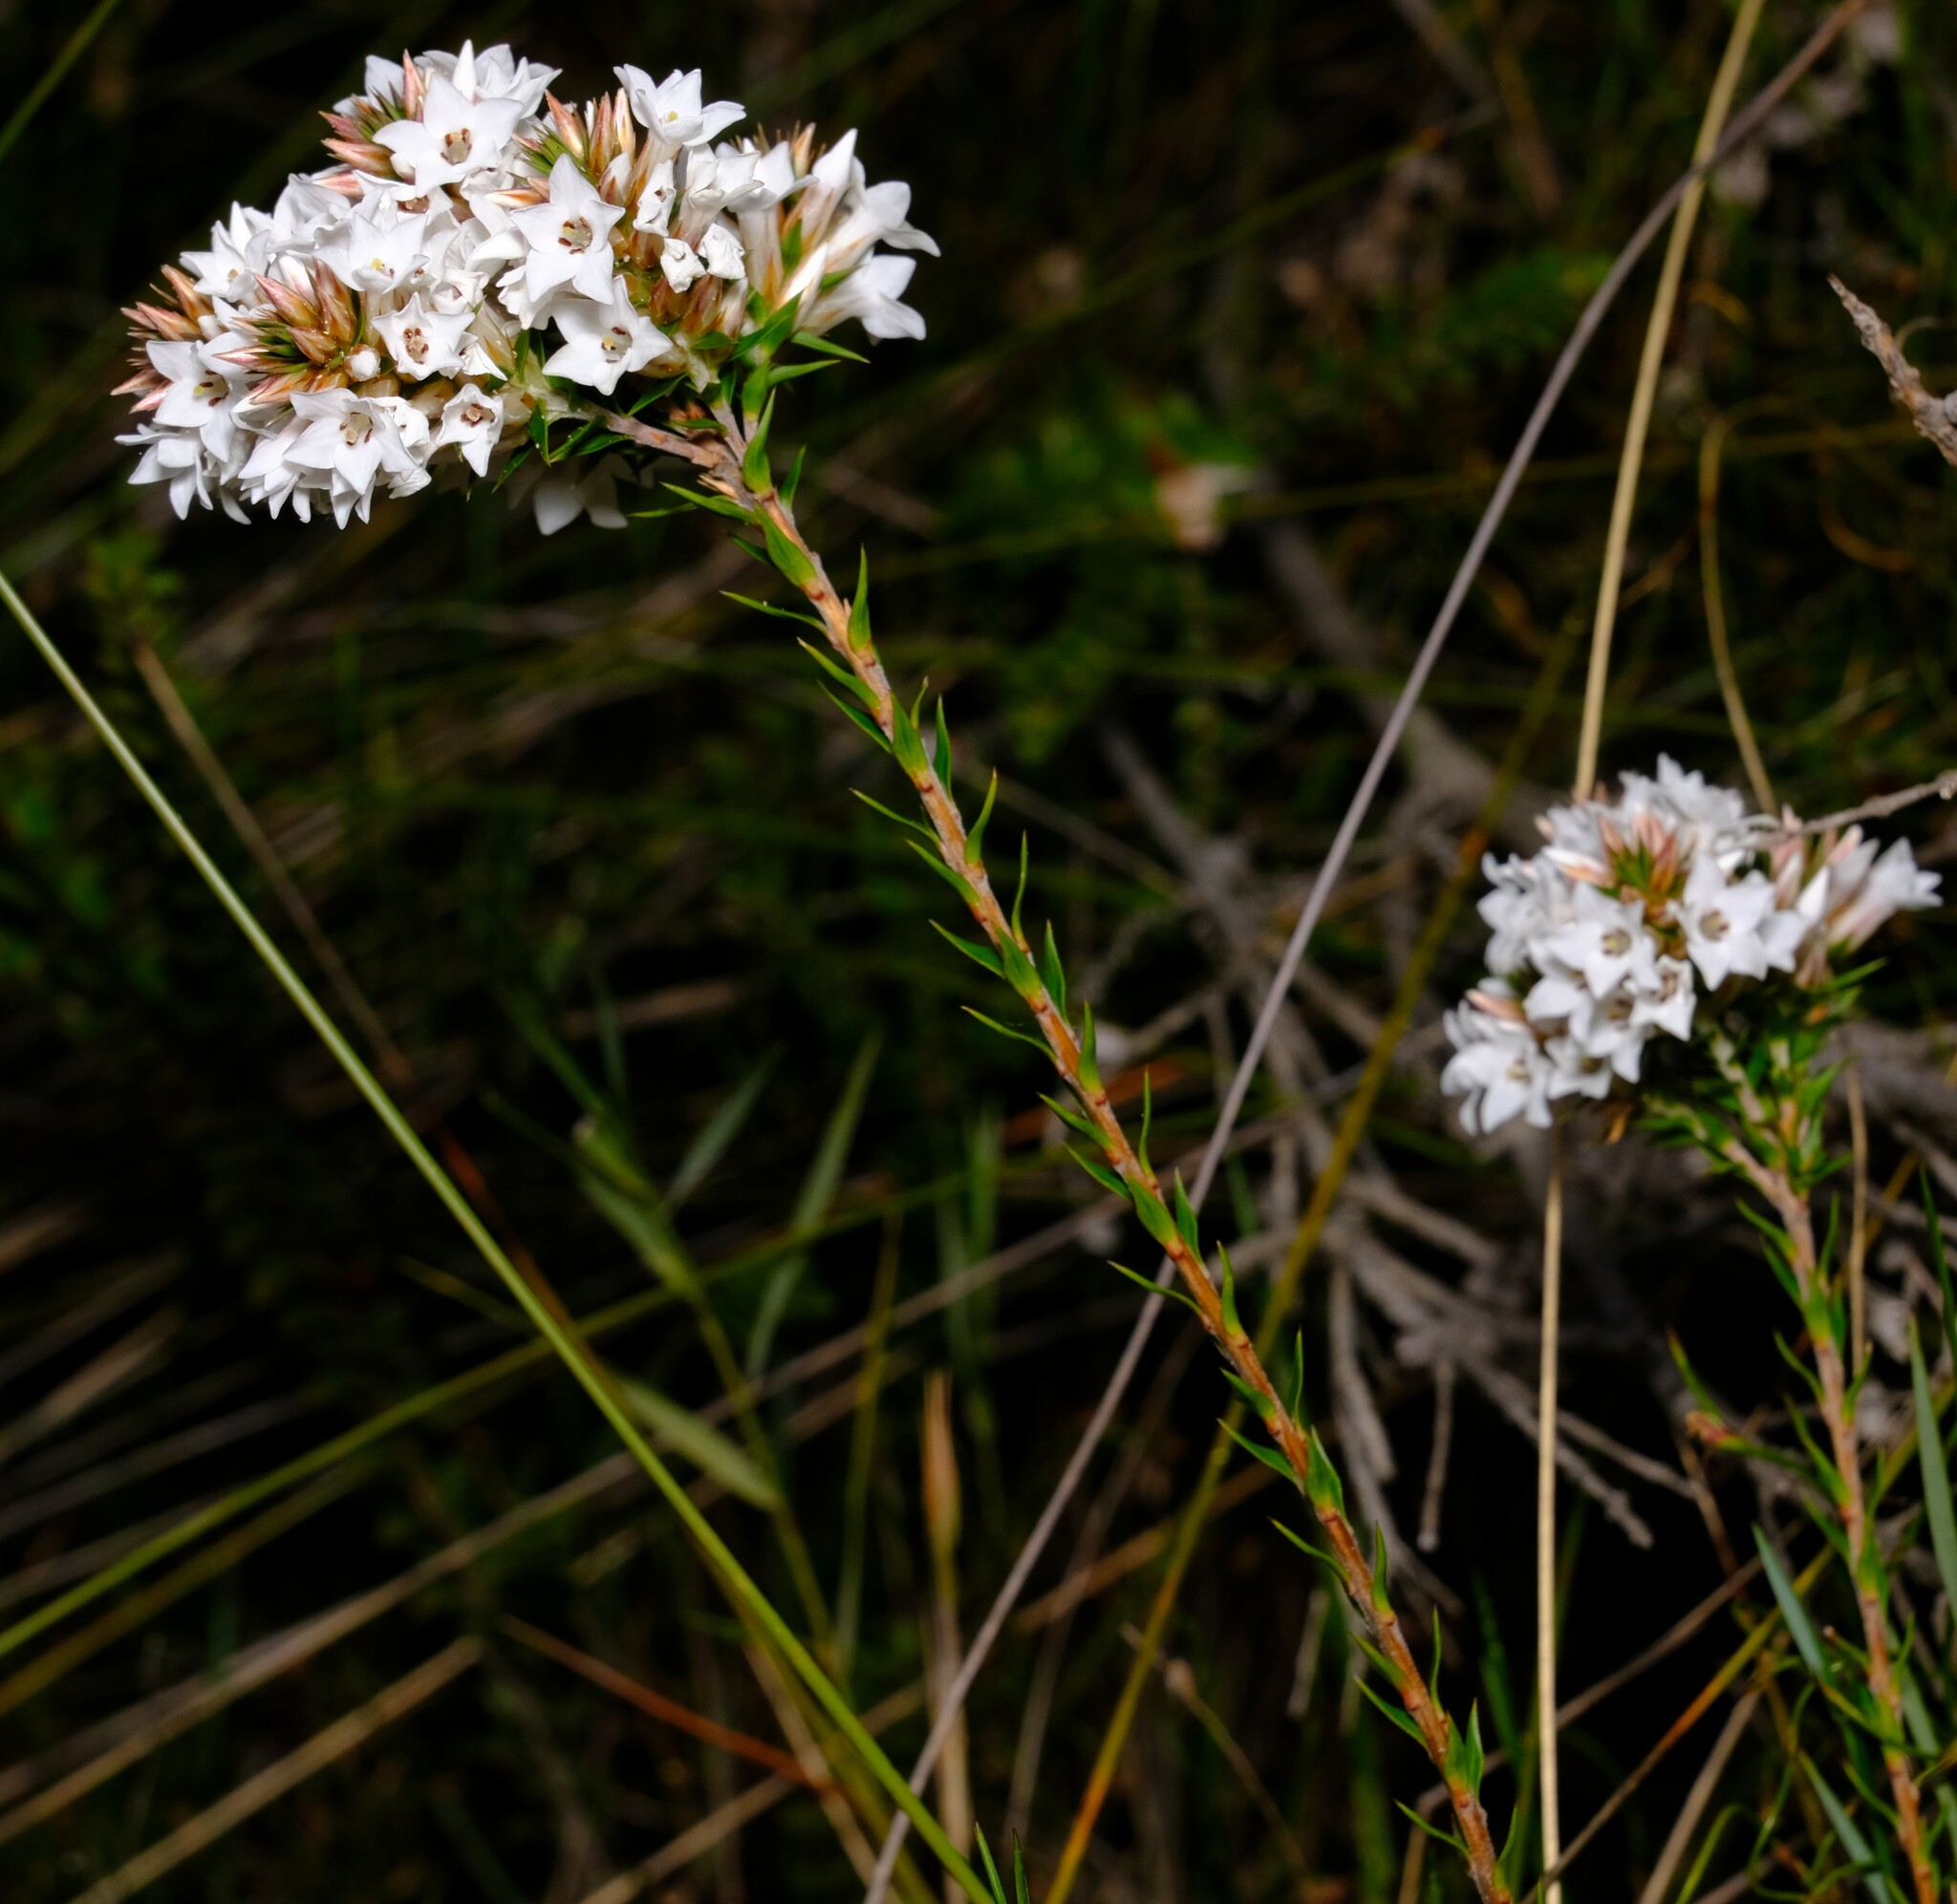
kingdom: Plantae
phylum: Tracheophyta
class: Magnoliopsida
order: Ericales
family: Ericaceae
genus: Epacris
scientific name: Epacris lanuginosa
